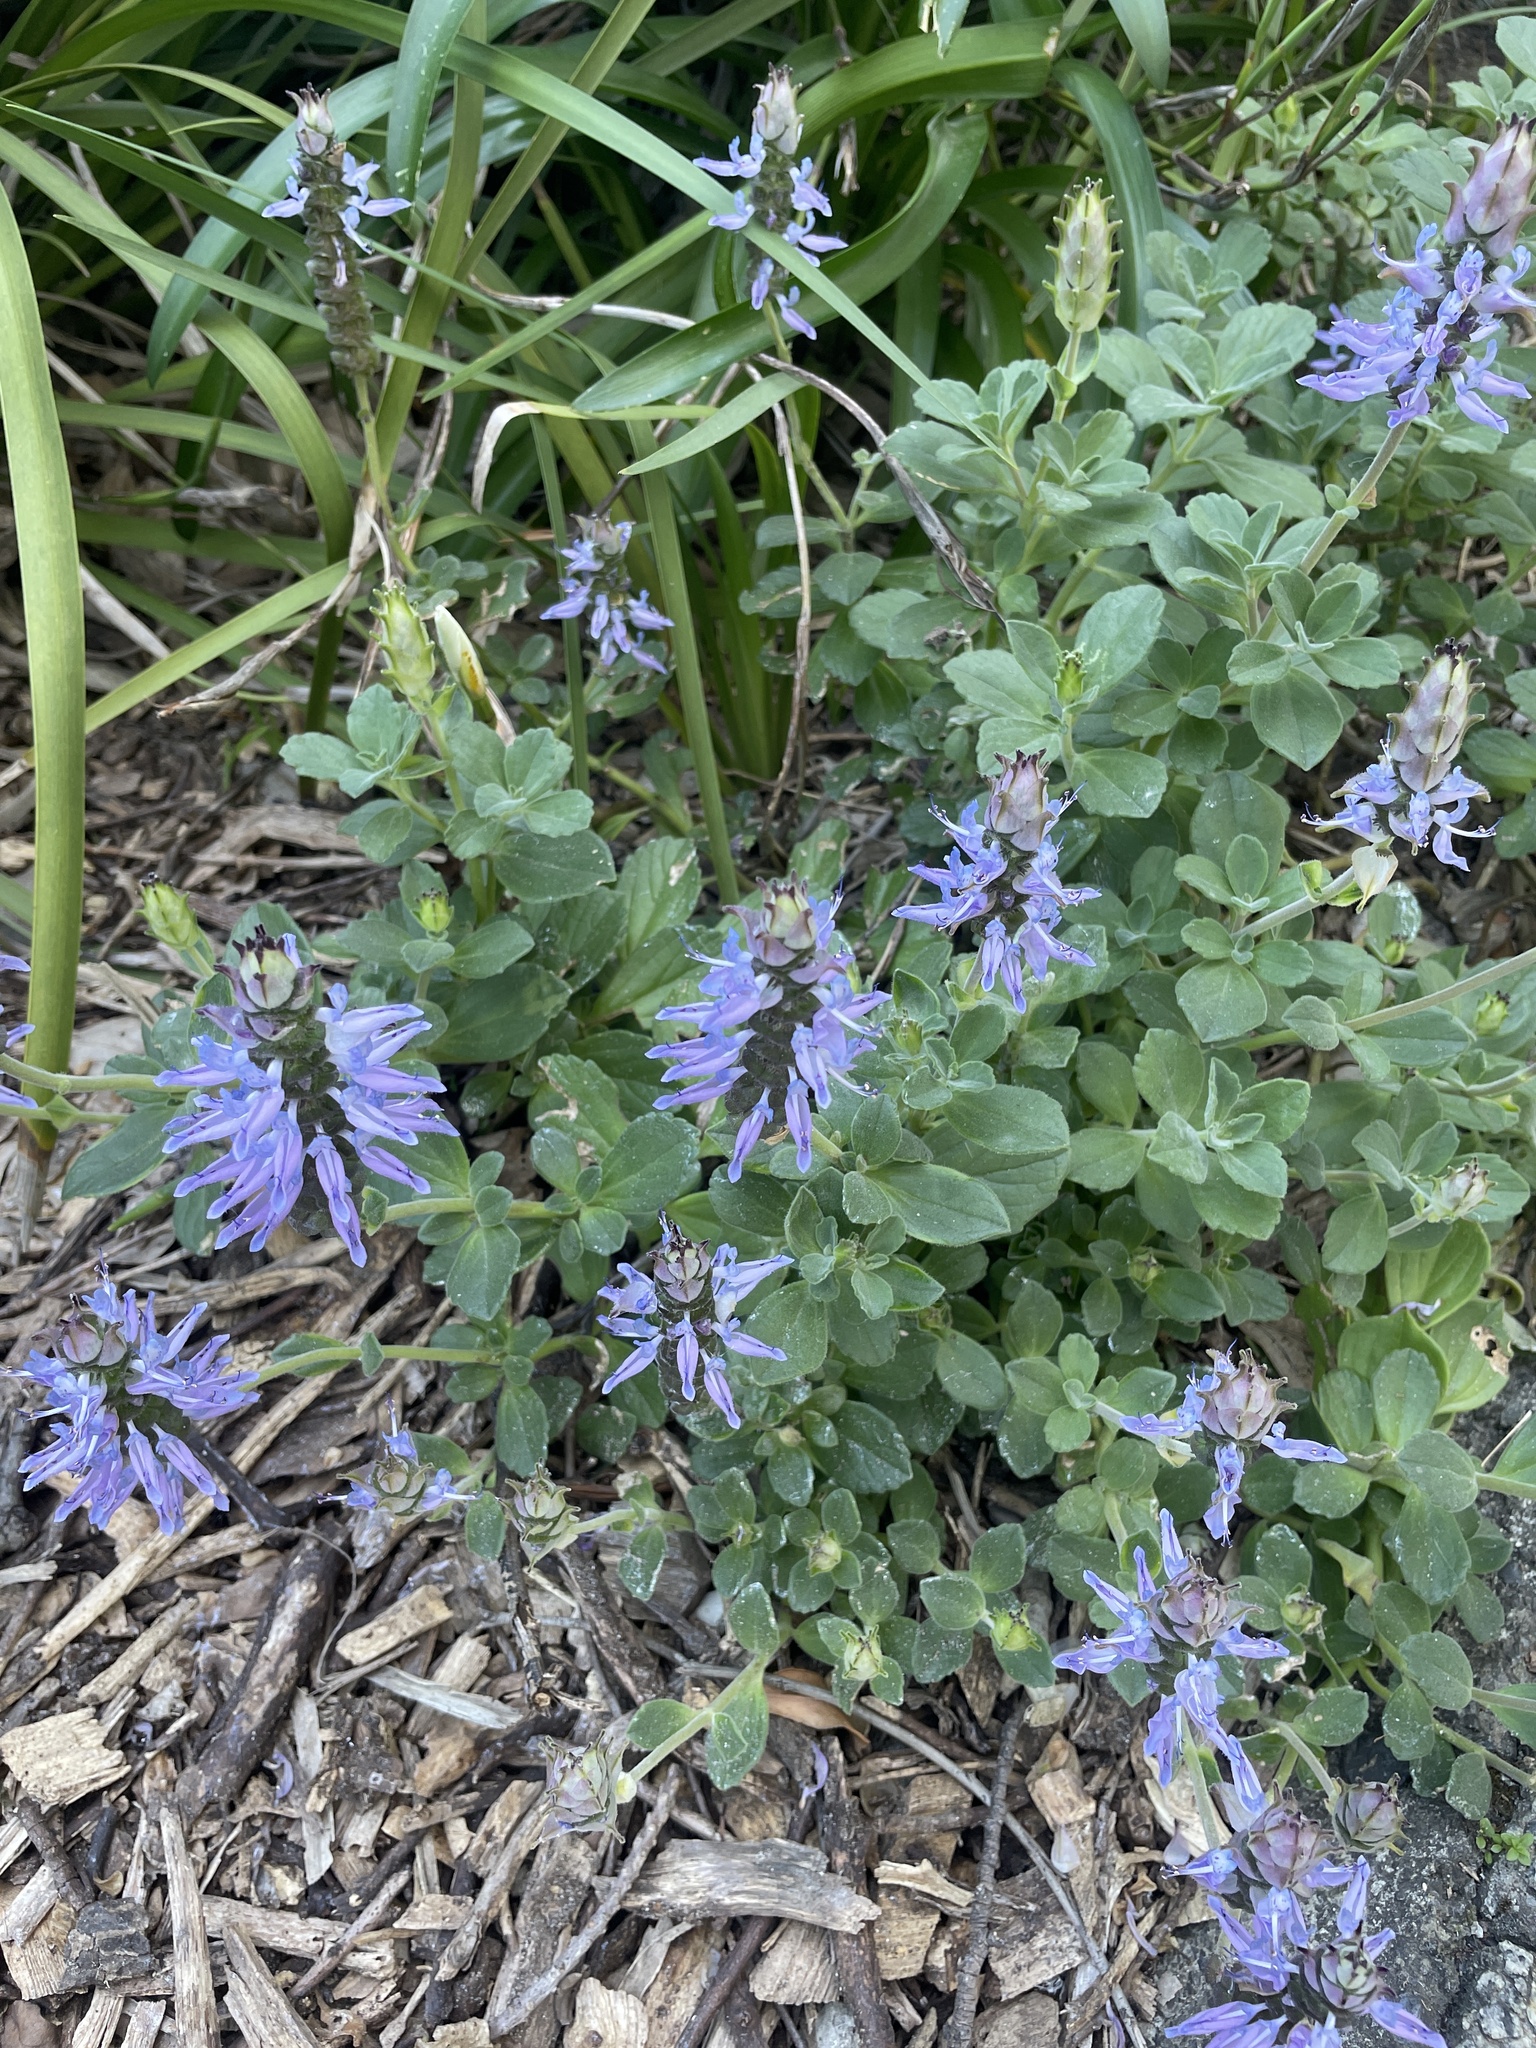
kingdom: Plantae
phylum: Tracheophyta
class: Magnoliopsida
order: Lamiales
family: Lamiaceae
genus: Coleus
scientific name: Coleus neochilus
